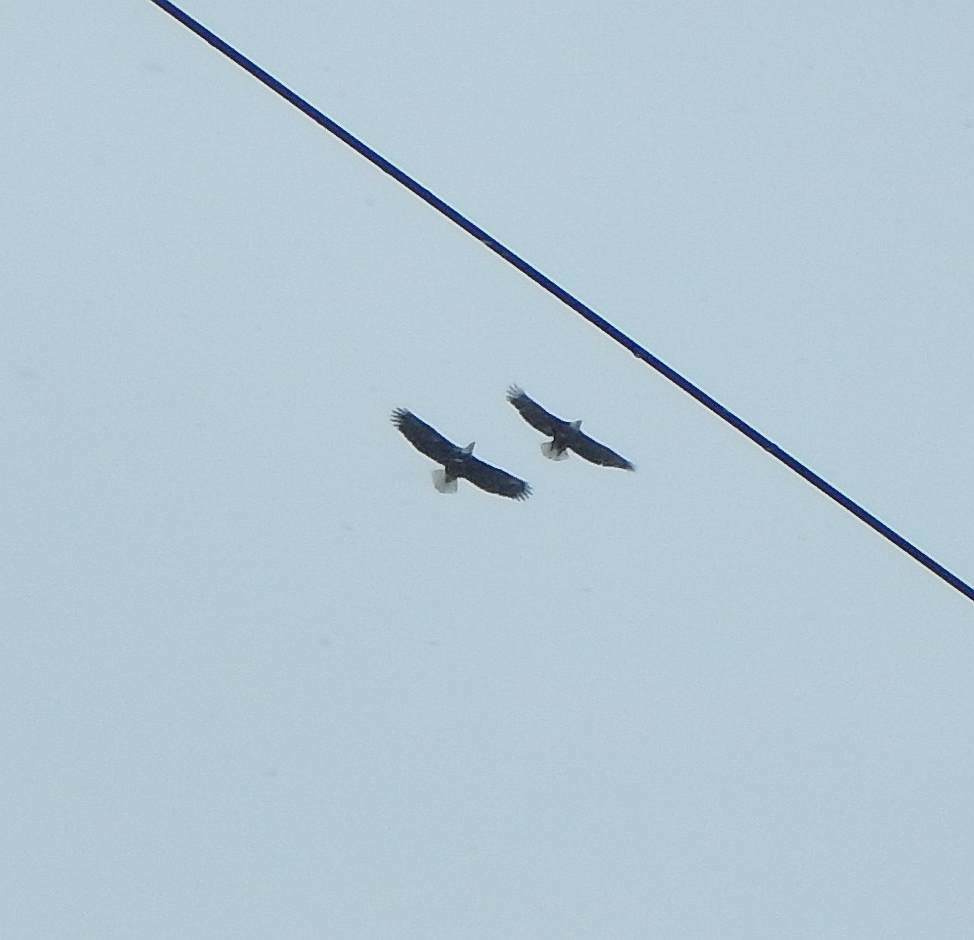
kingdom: Animalia
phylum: Chordata
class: Aves
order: Accipitriformes
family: Accipitridae
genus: Haliaeetus
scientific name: Haliaeetus leucocephalus
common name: Bald eagle
